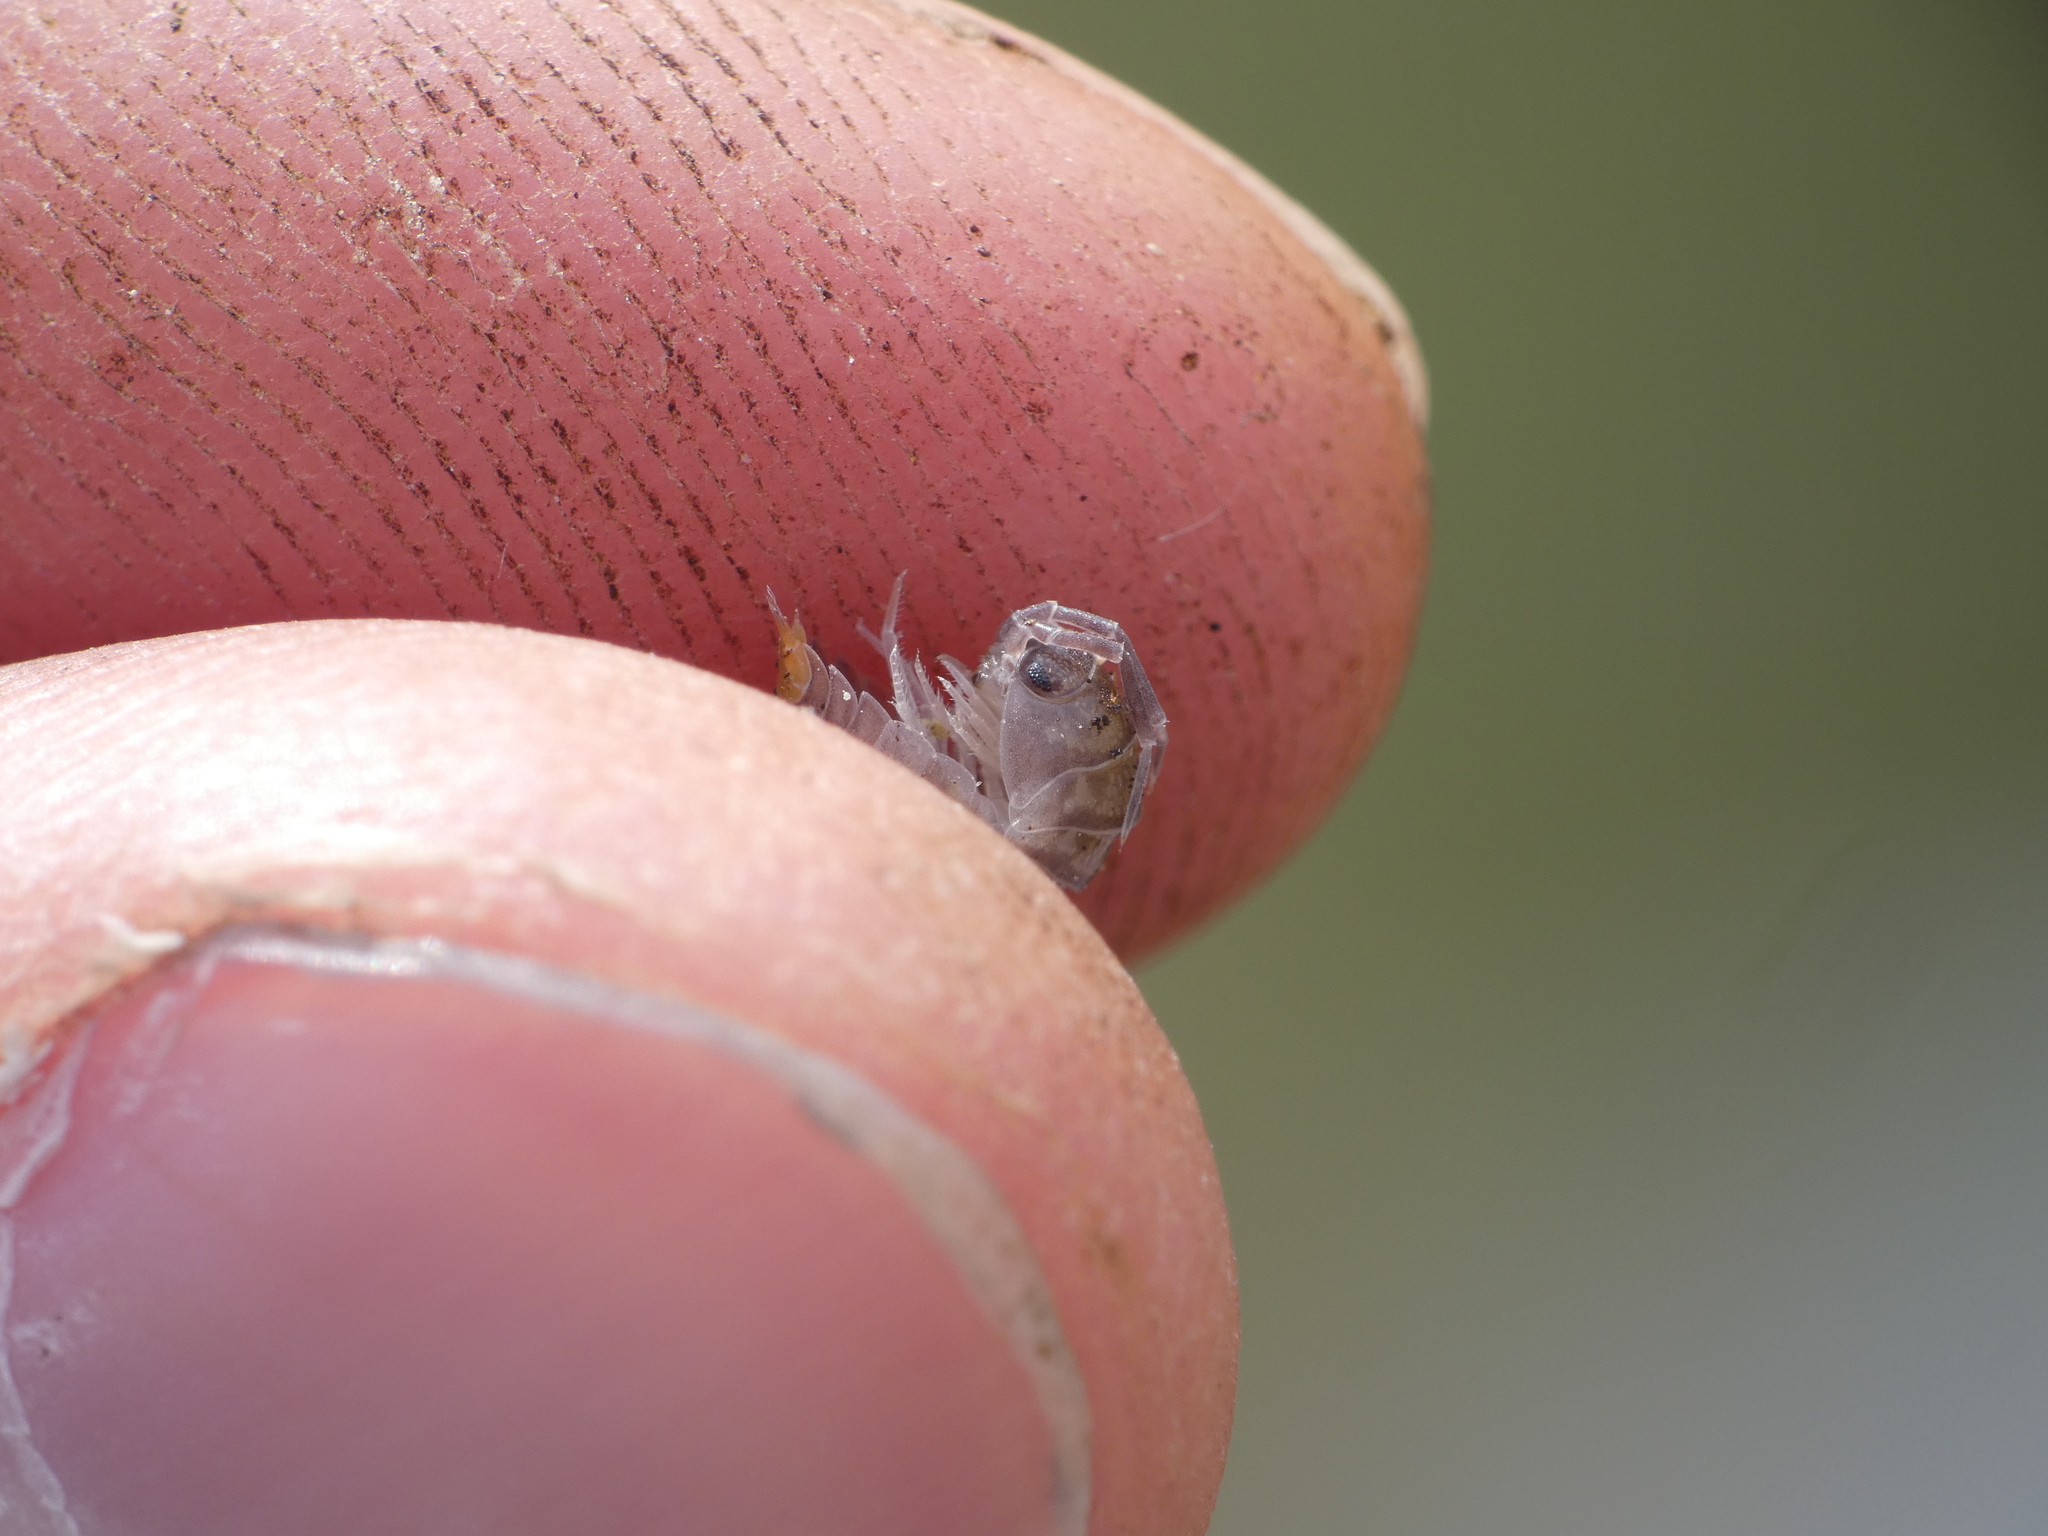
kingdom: Animalia
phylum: Arthropoda
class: Malacostraca
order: Isopoda
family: Cylisticidae
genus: Cylisticus
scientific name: Cylisticus convexus
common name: Curly woodlouse
